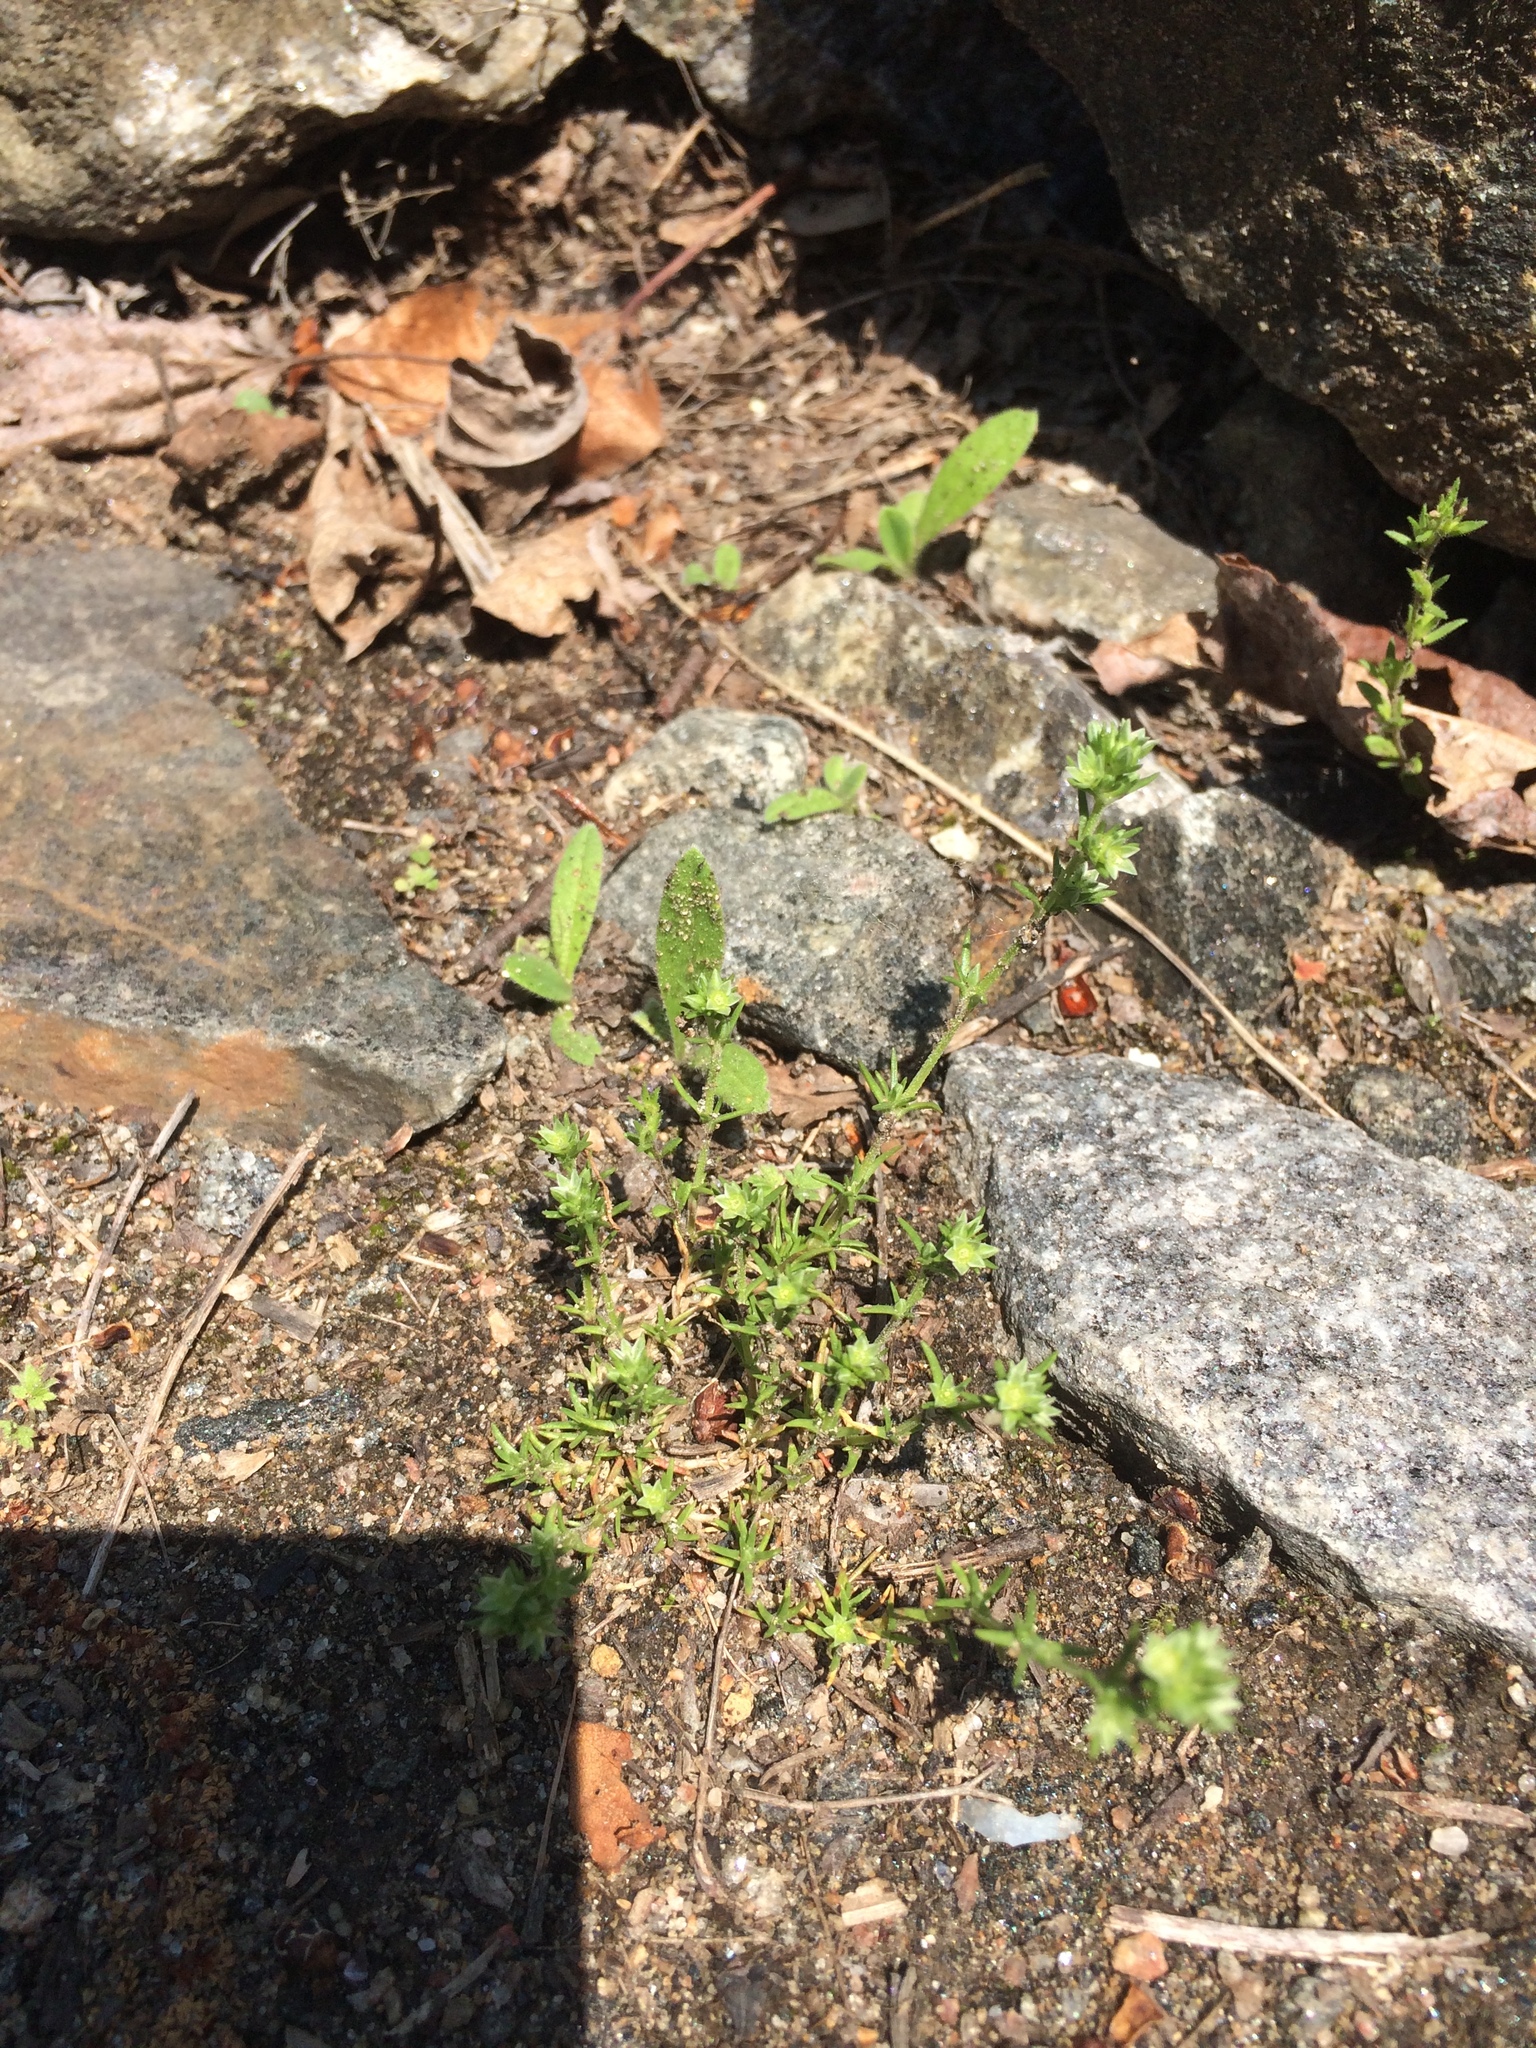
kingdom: Plantae
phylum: Tracheophyta
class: Magnoliopsida
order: Caryophyllales
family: Caryophyllaceae
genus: Scleranthus
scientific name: Scleranthus annuus
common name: Annual knawel
